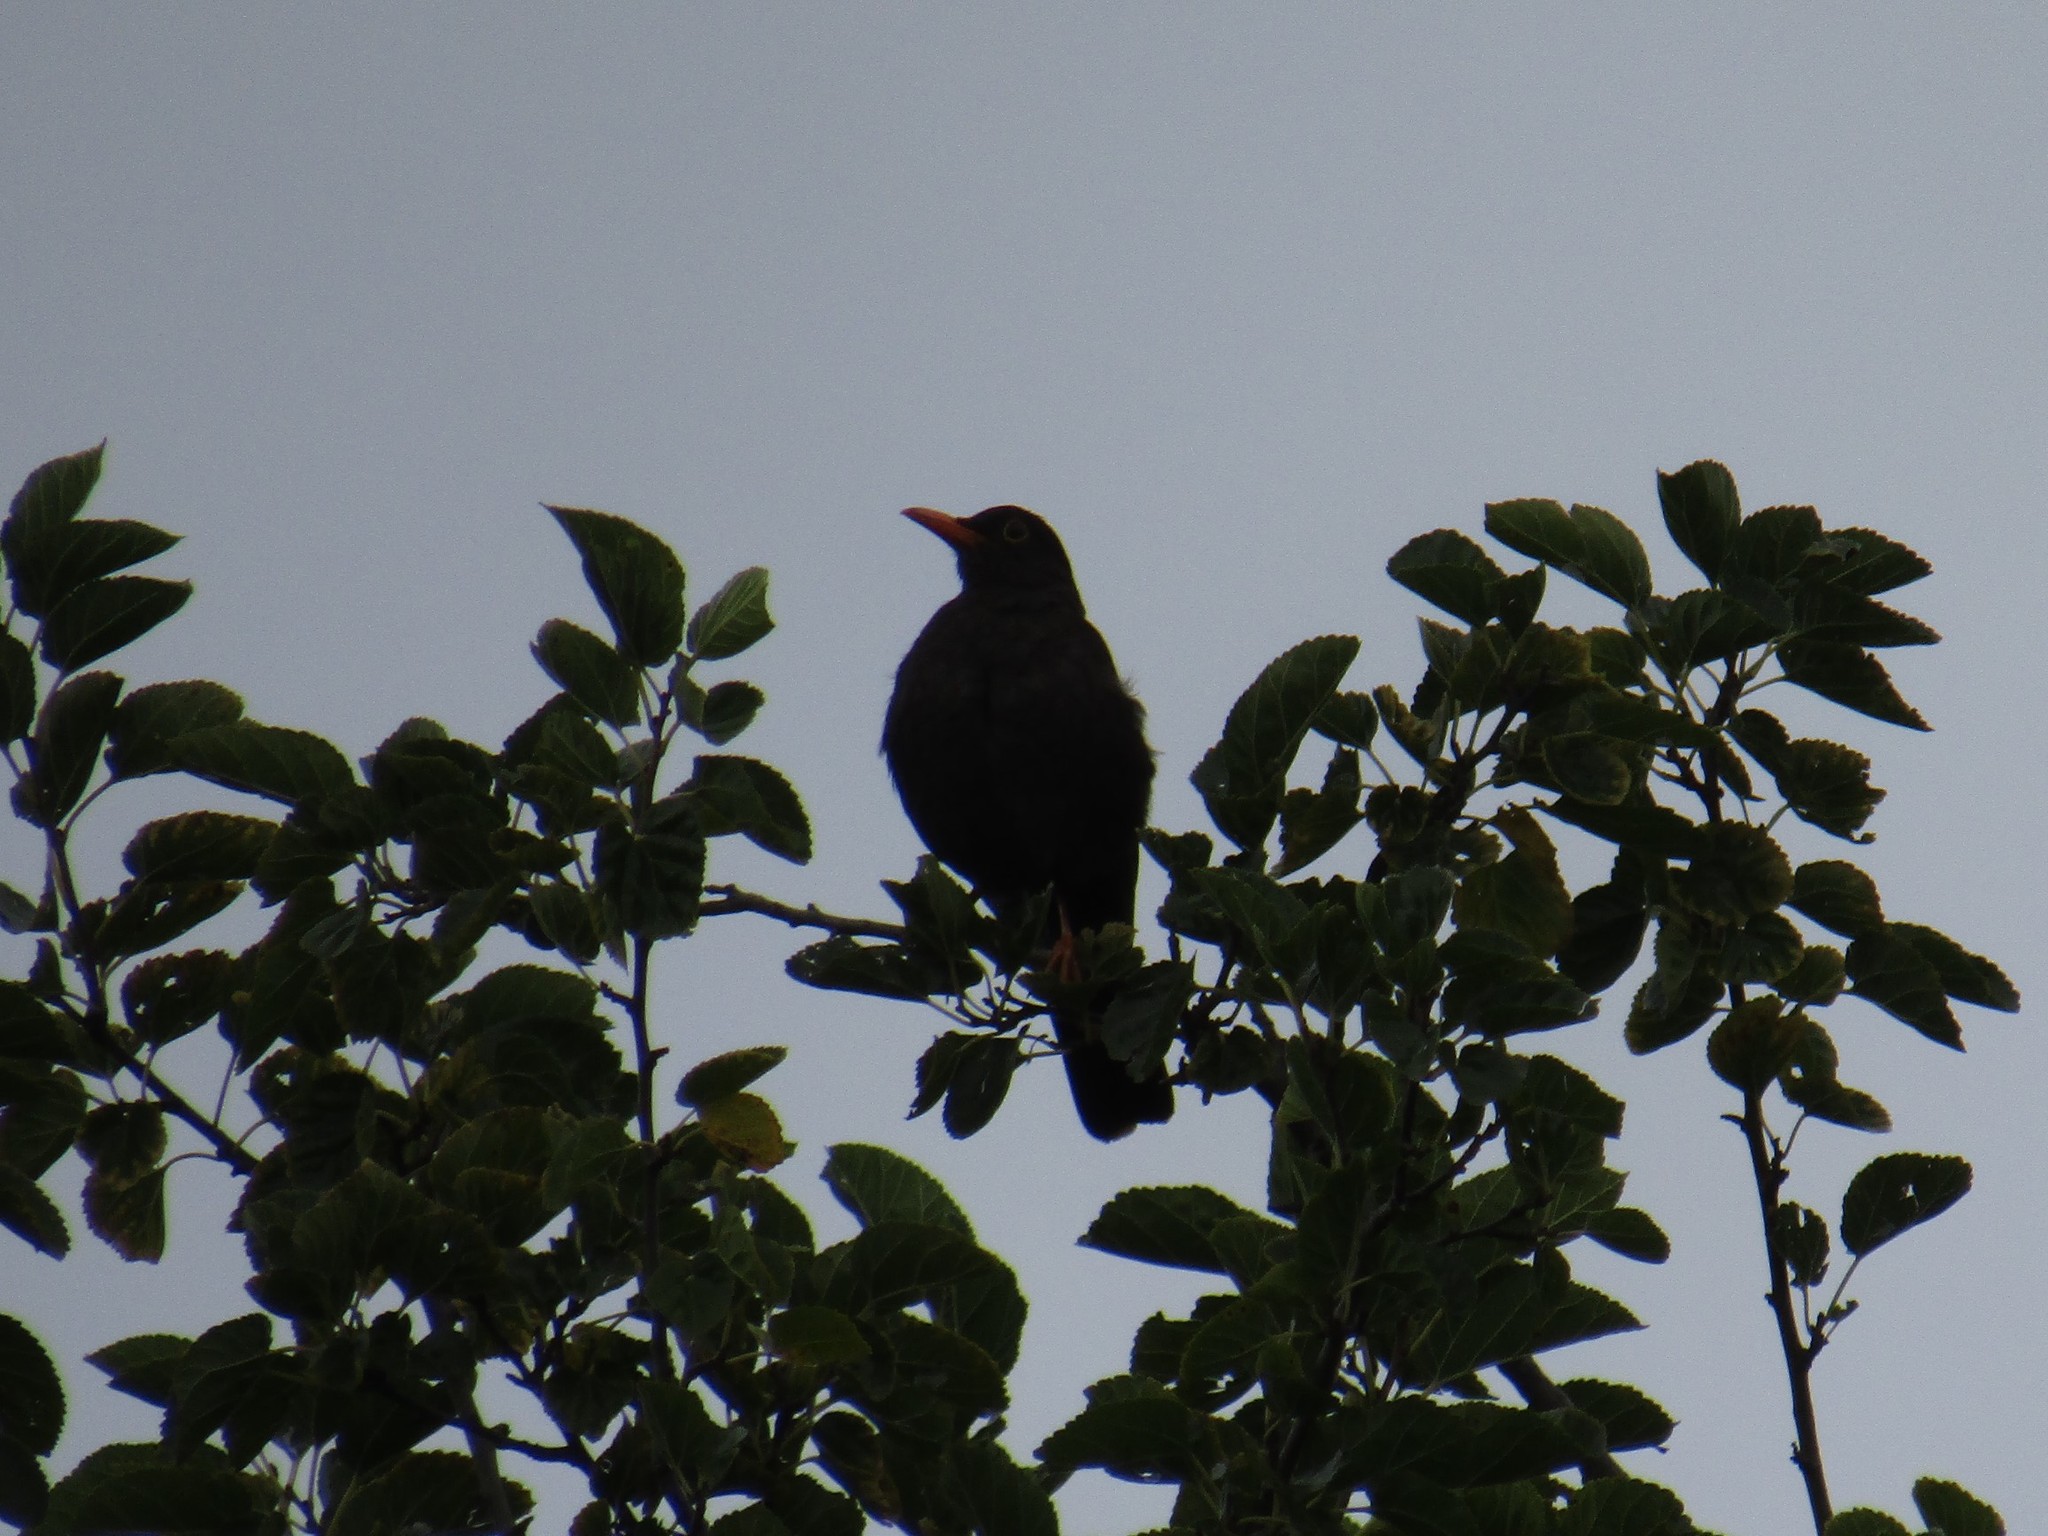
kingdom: Animalia
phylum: Chordata
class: Aves
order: Passeriformes
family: Turdidae
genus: Turdus
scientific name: Turdus chiguanco
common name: Chiguanco thrush
